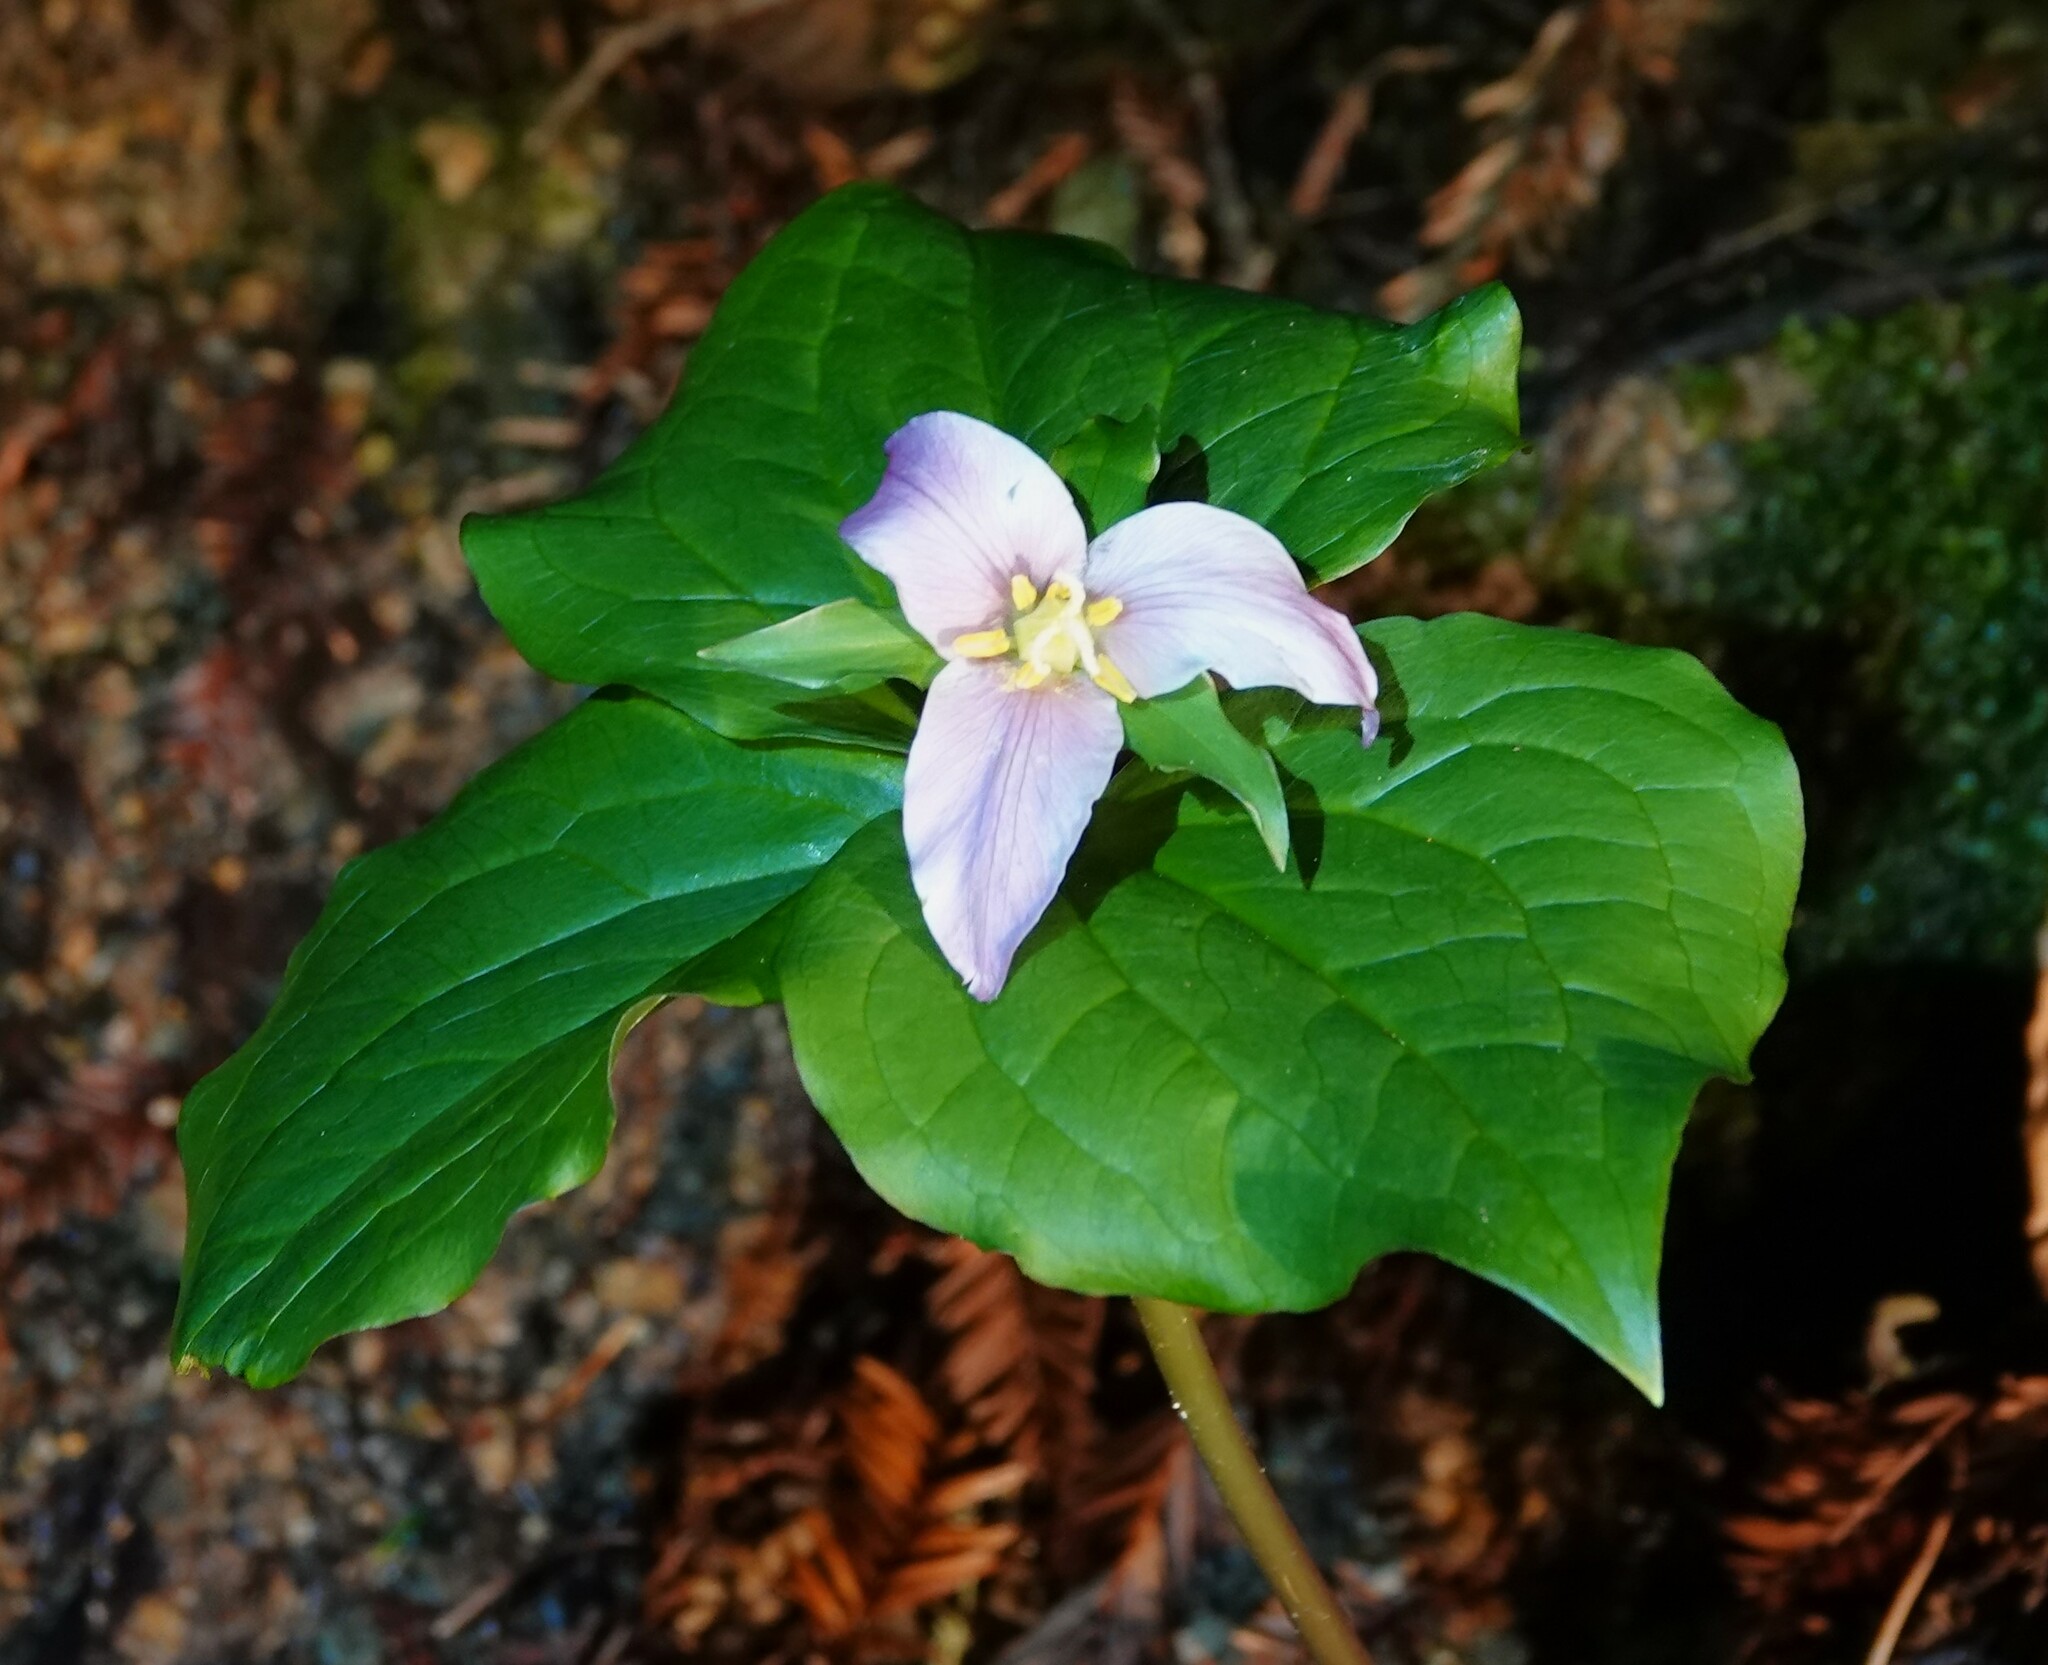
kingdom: Plantae
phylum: Tracheophyta
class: Liliopsida
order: Liliales
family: Melanthiaceae
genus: Trillium
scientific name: Trillium ovatum
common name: Pacific trillium
